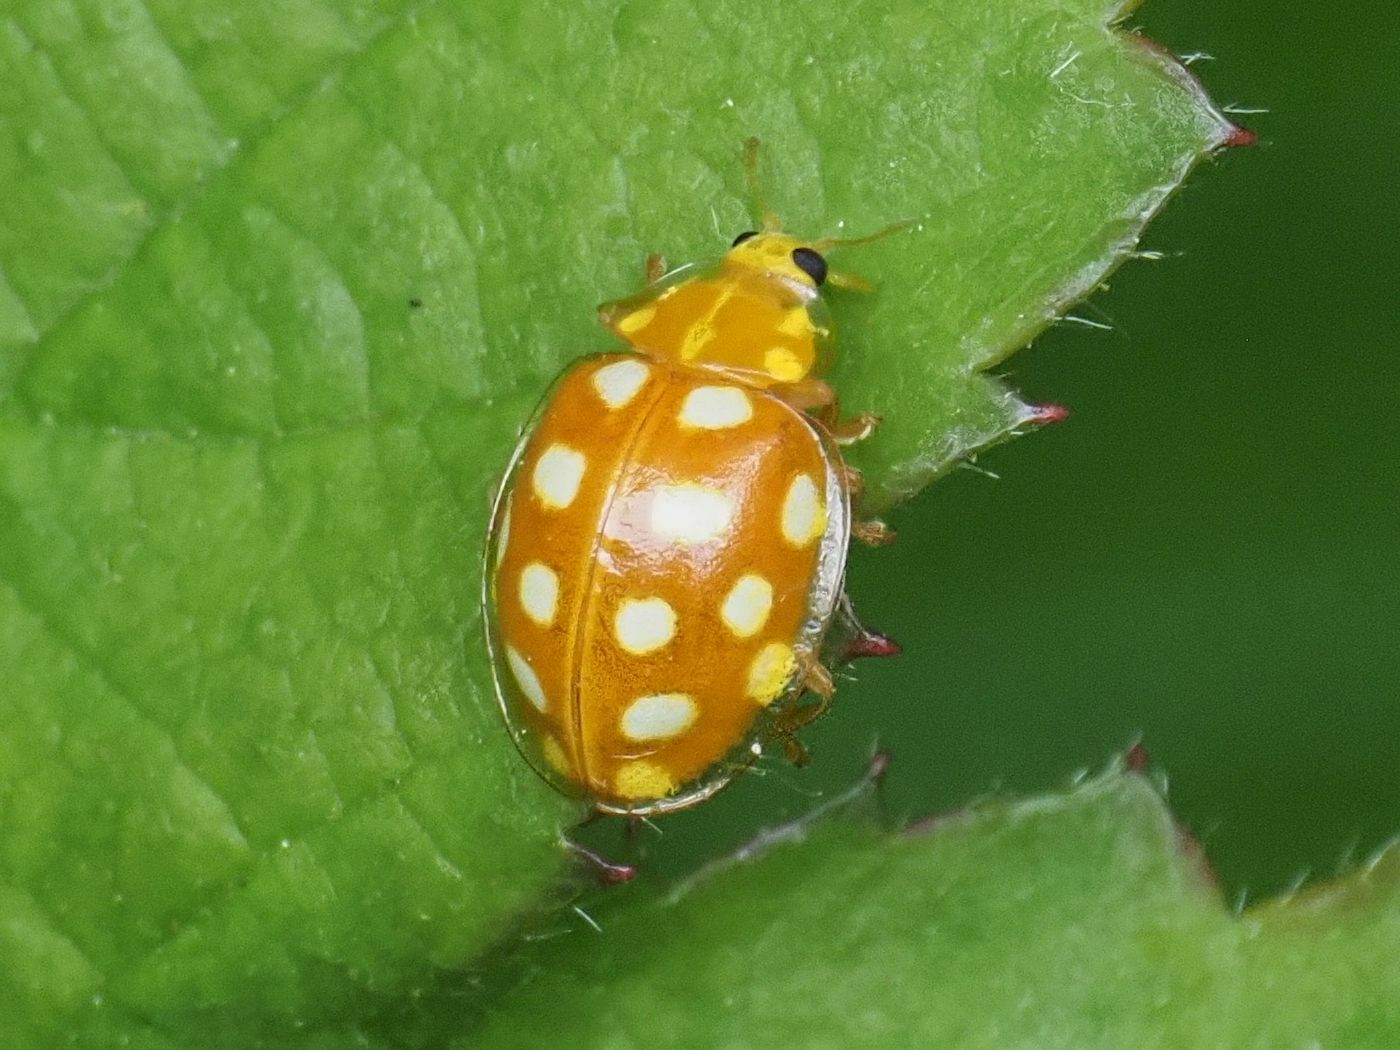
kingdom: Animalia
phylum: Arthropoda
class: Insecta
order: Coleoptera
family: Coccinellidae
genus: Halyzia
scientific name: Halyzia sedecimguttata
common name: Orange ladybird
